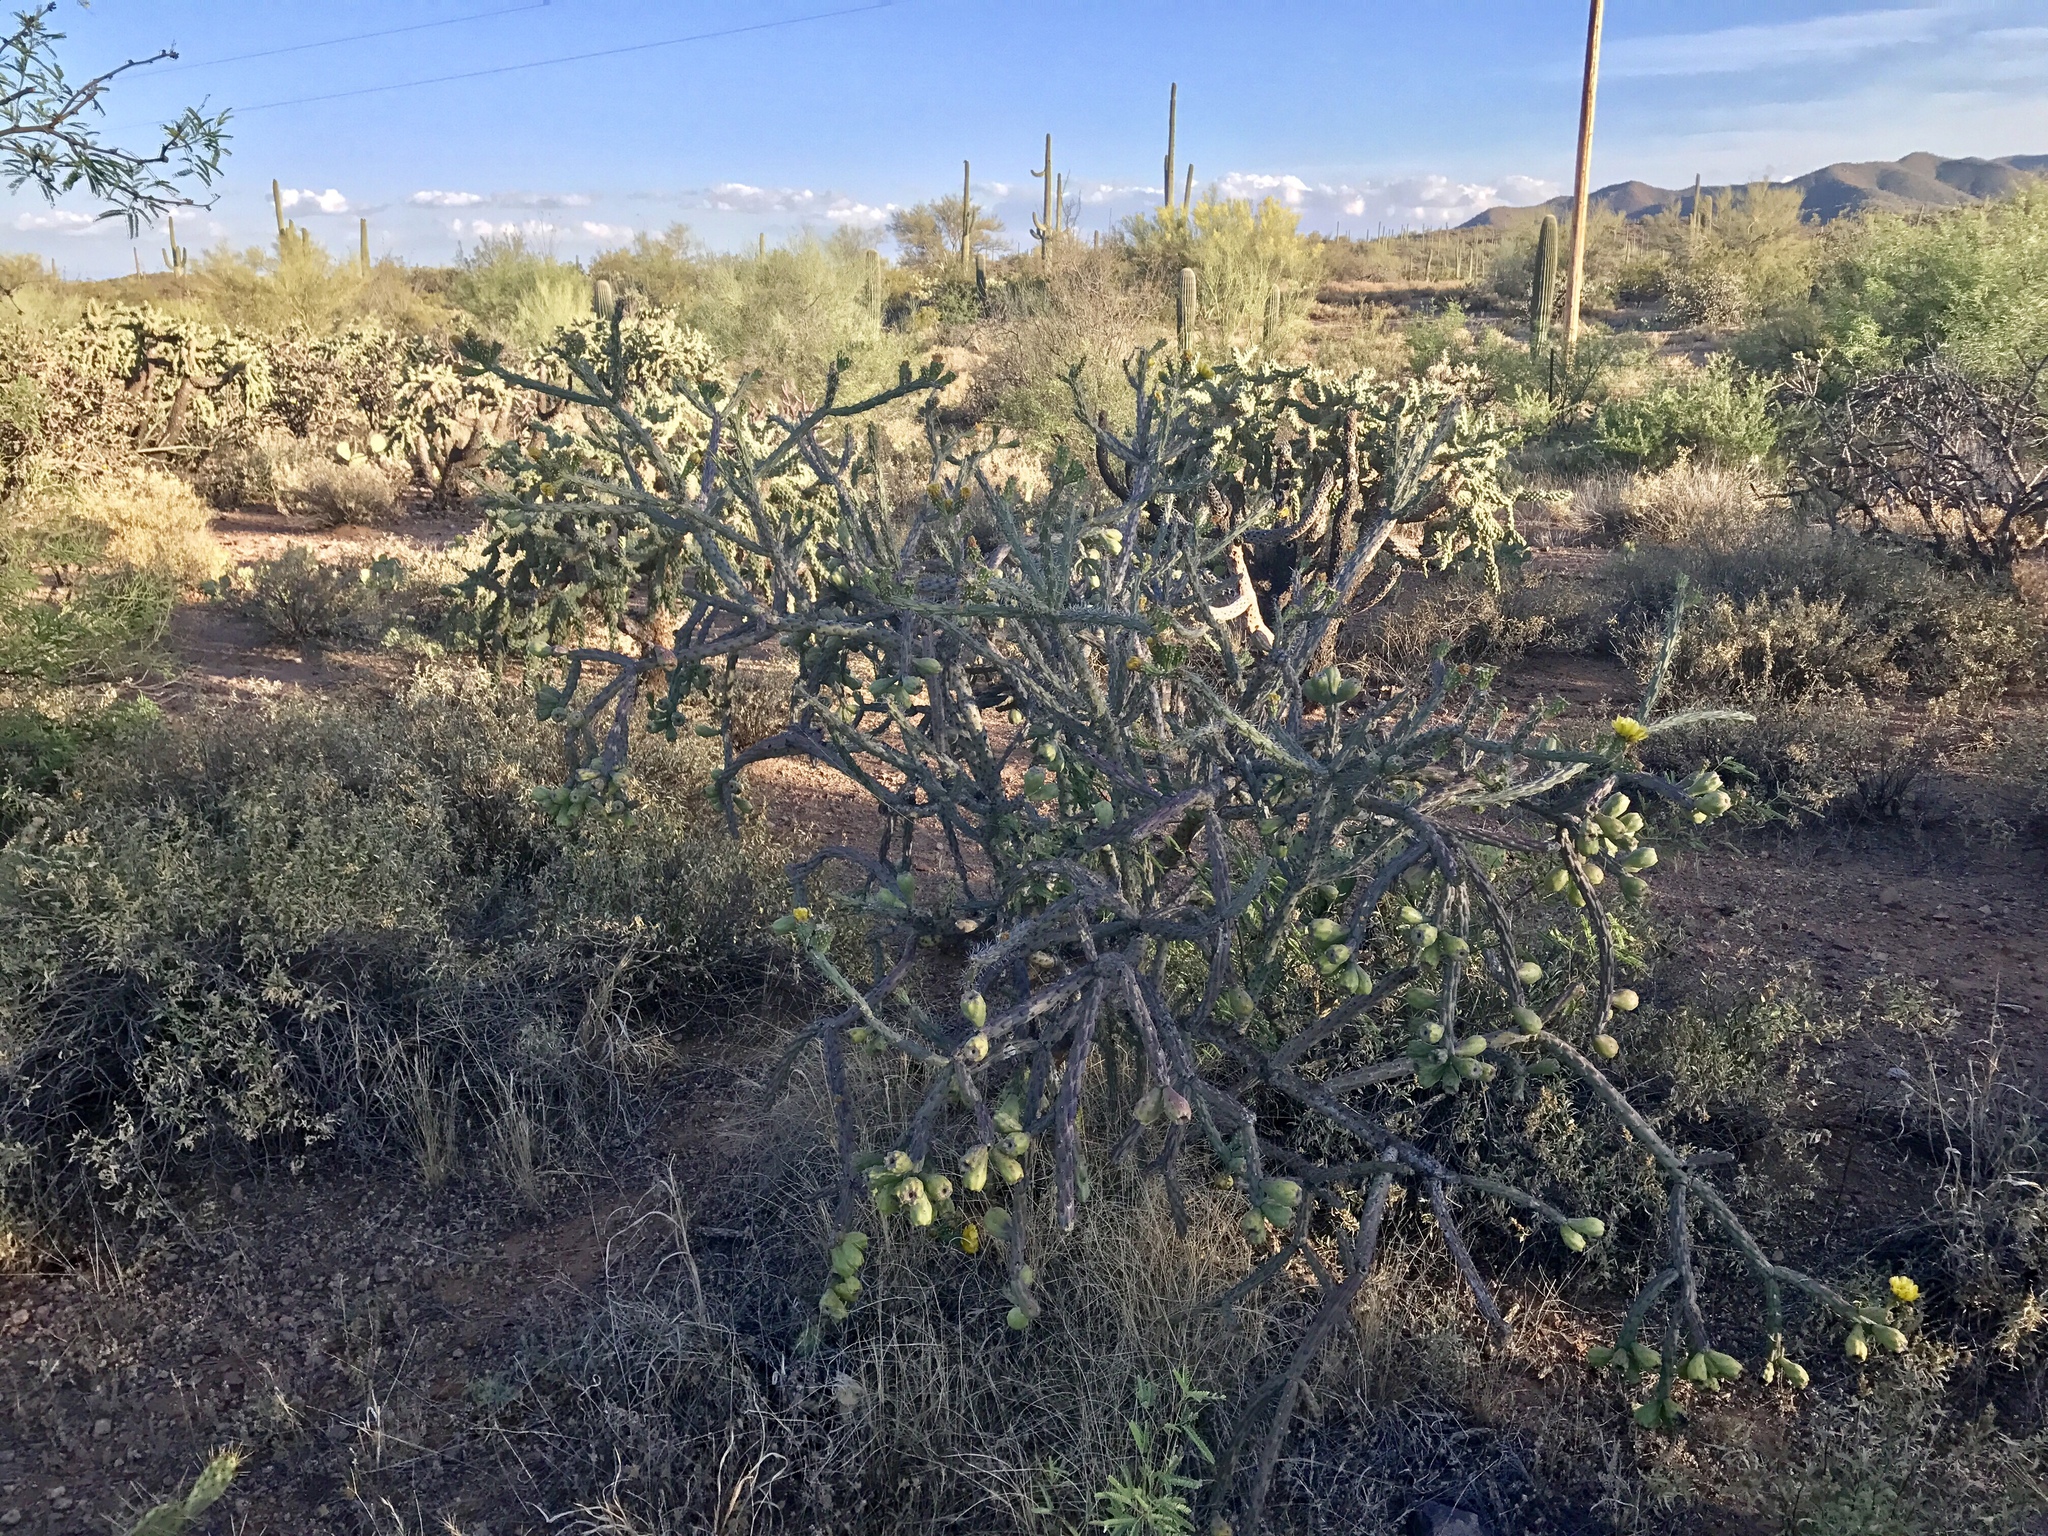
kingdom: Plantae
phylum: Tracheophyta
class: Magnoliopsida
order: Caryophyllales
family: Cactaceae
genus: Cylindropuntia
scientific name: Cylindropuntia thurberi
